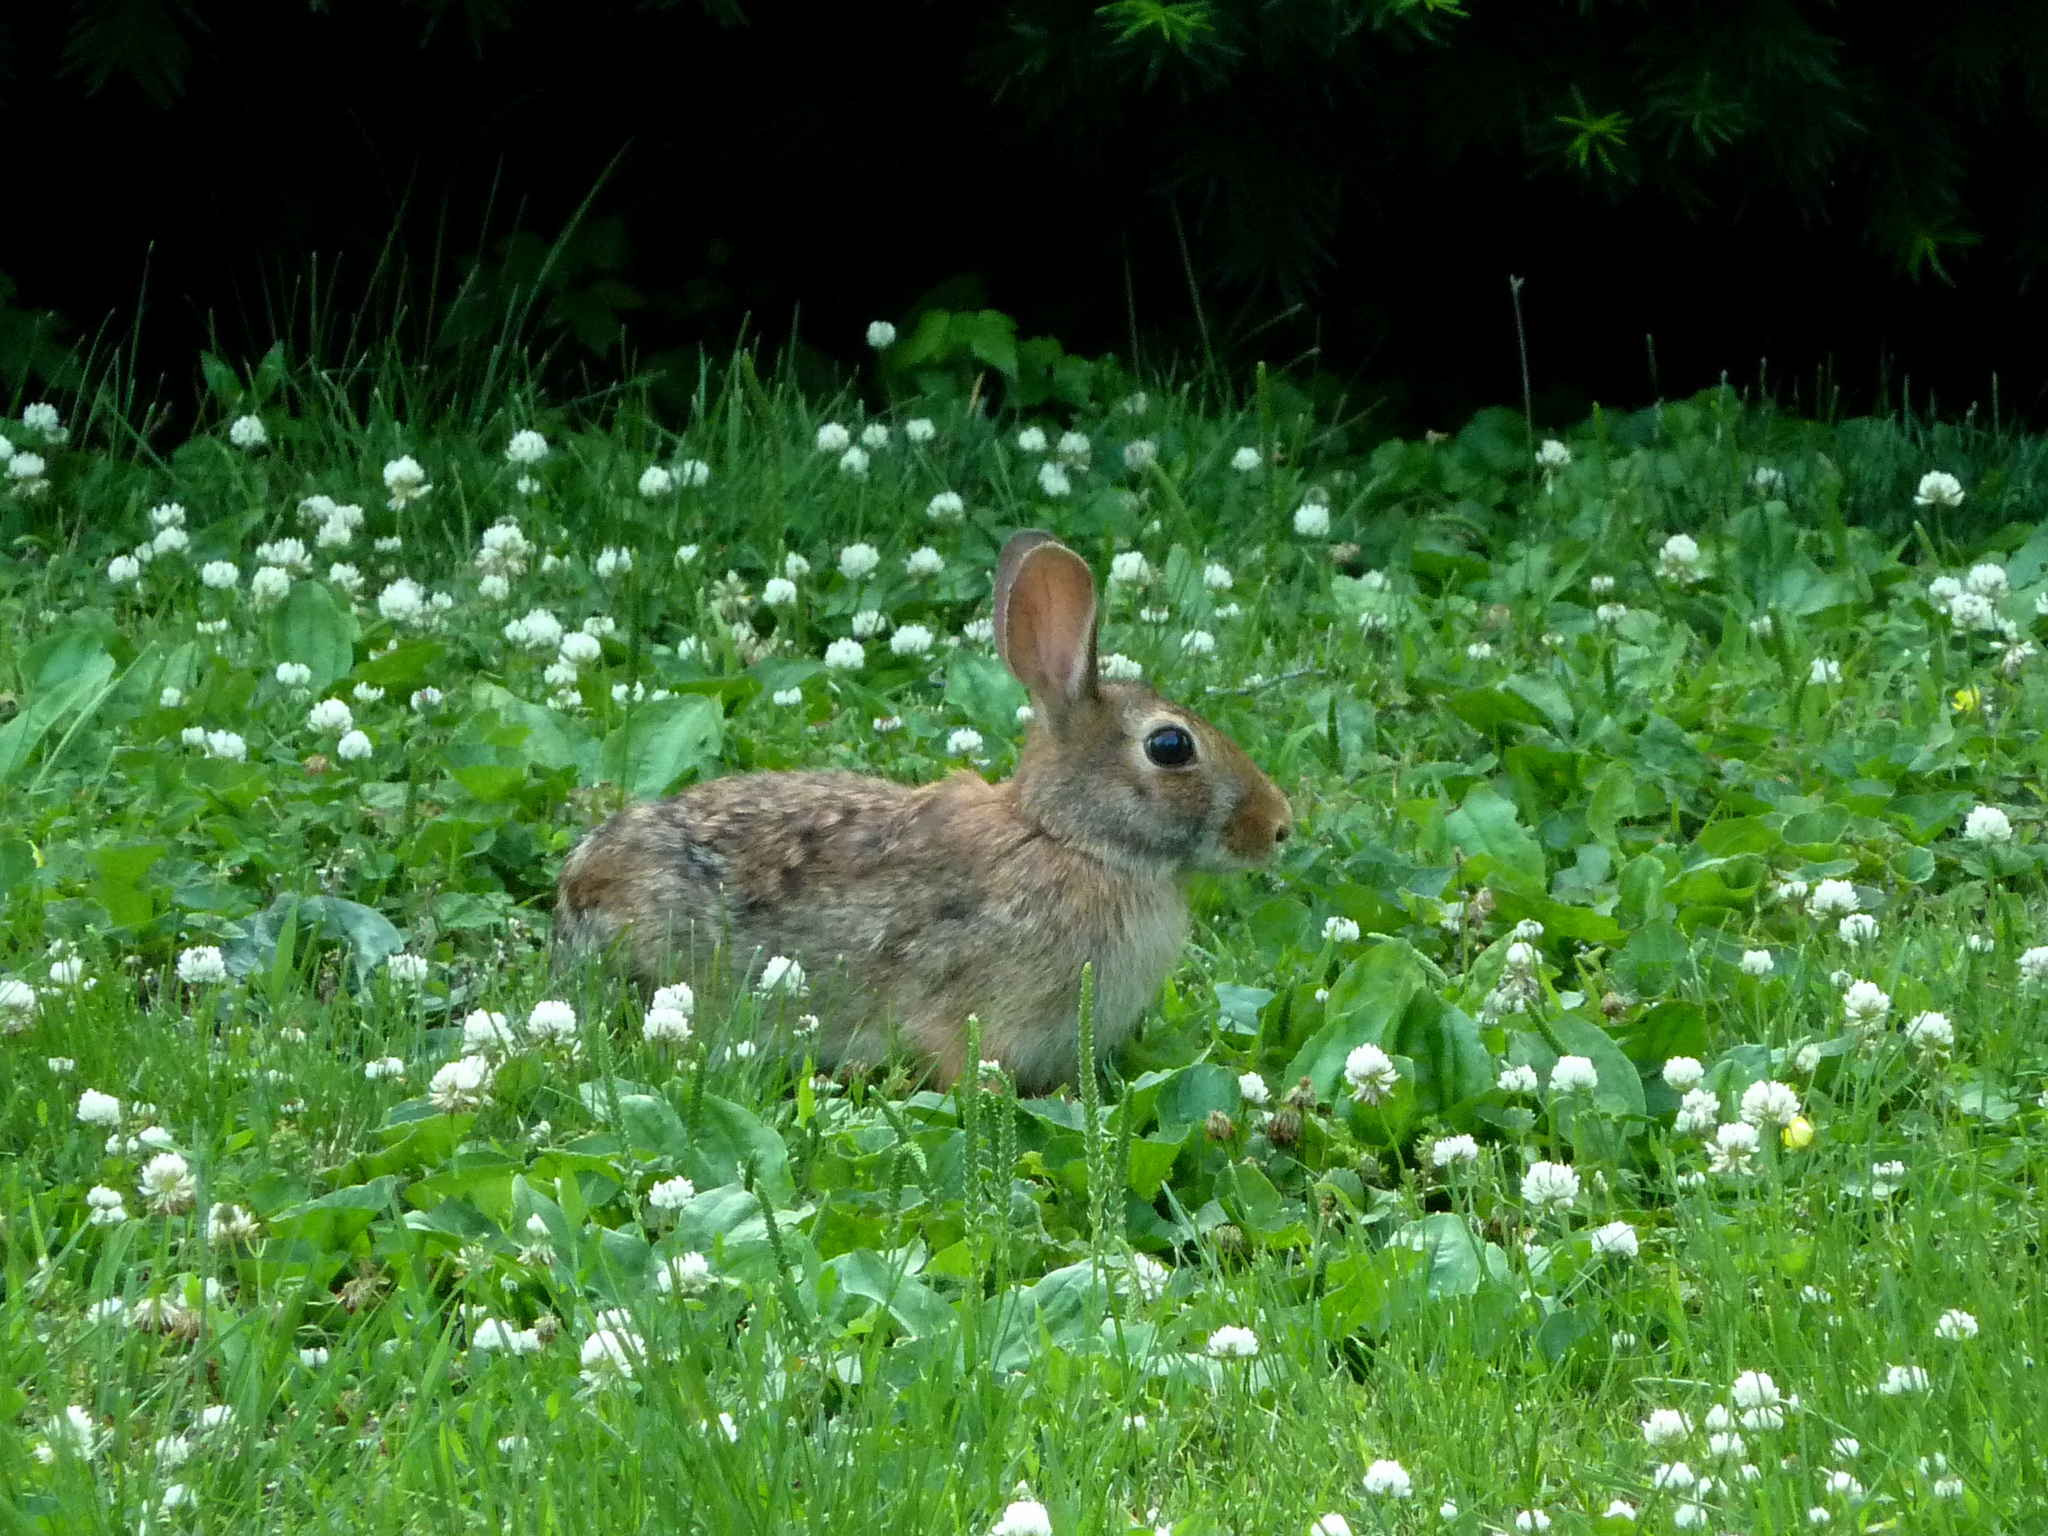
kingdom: Animalia
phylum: Chordata
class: Mammalia
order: Lagomorpha
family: Leporidae
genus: Sylvilagus
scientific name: Sylvilagus floridanus
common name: Eastern cottontail
